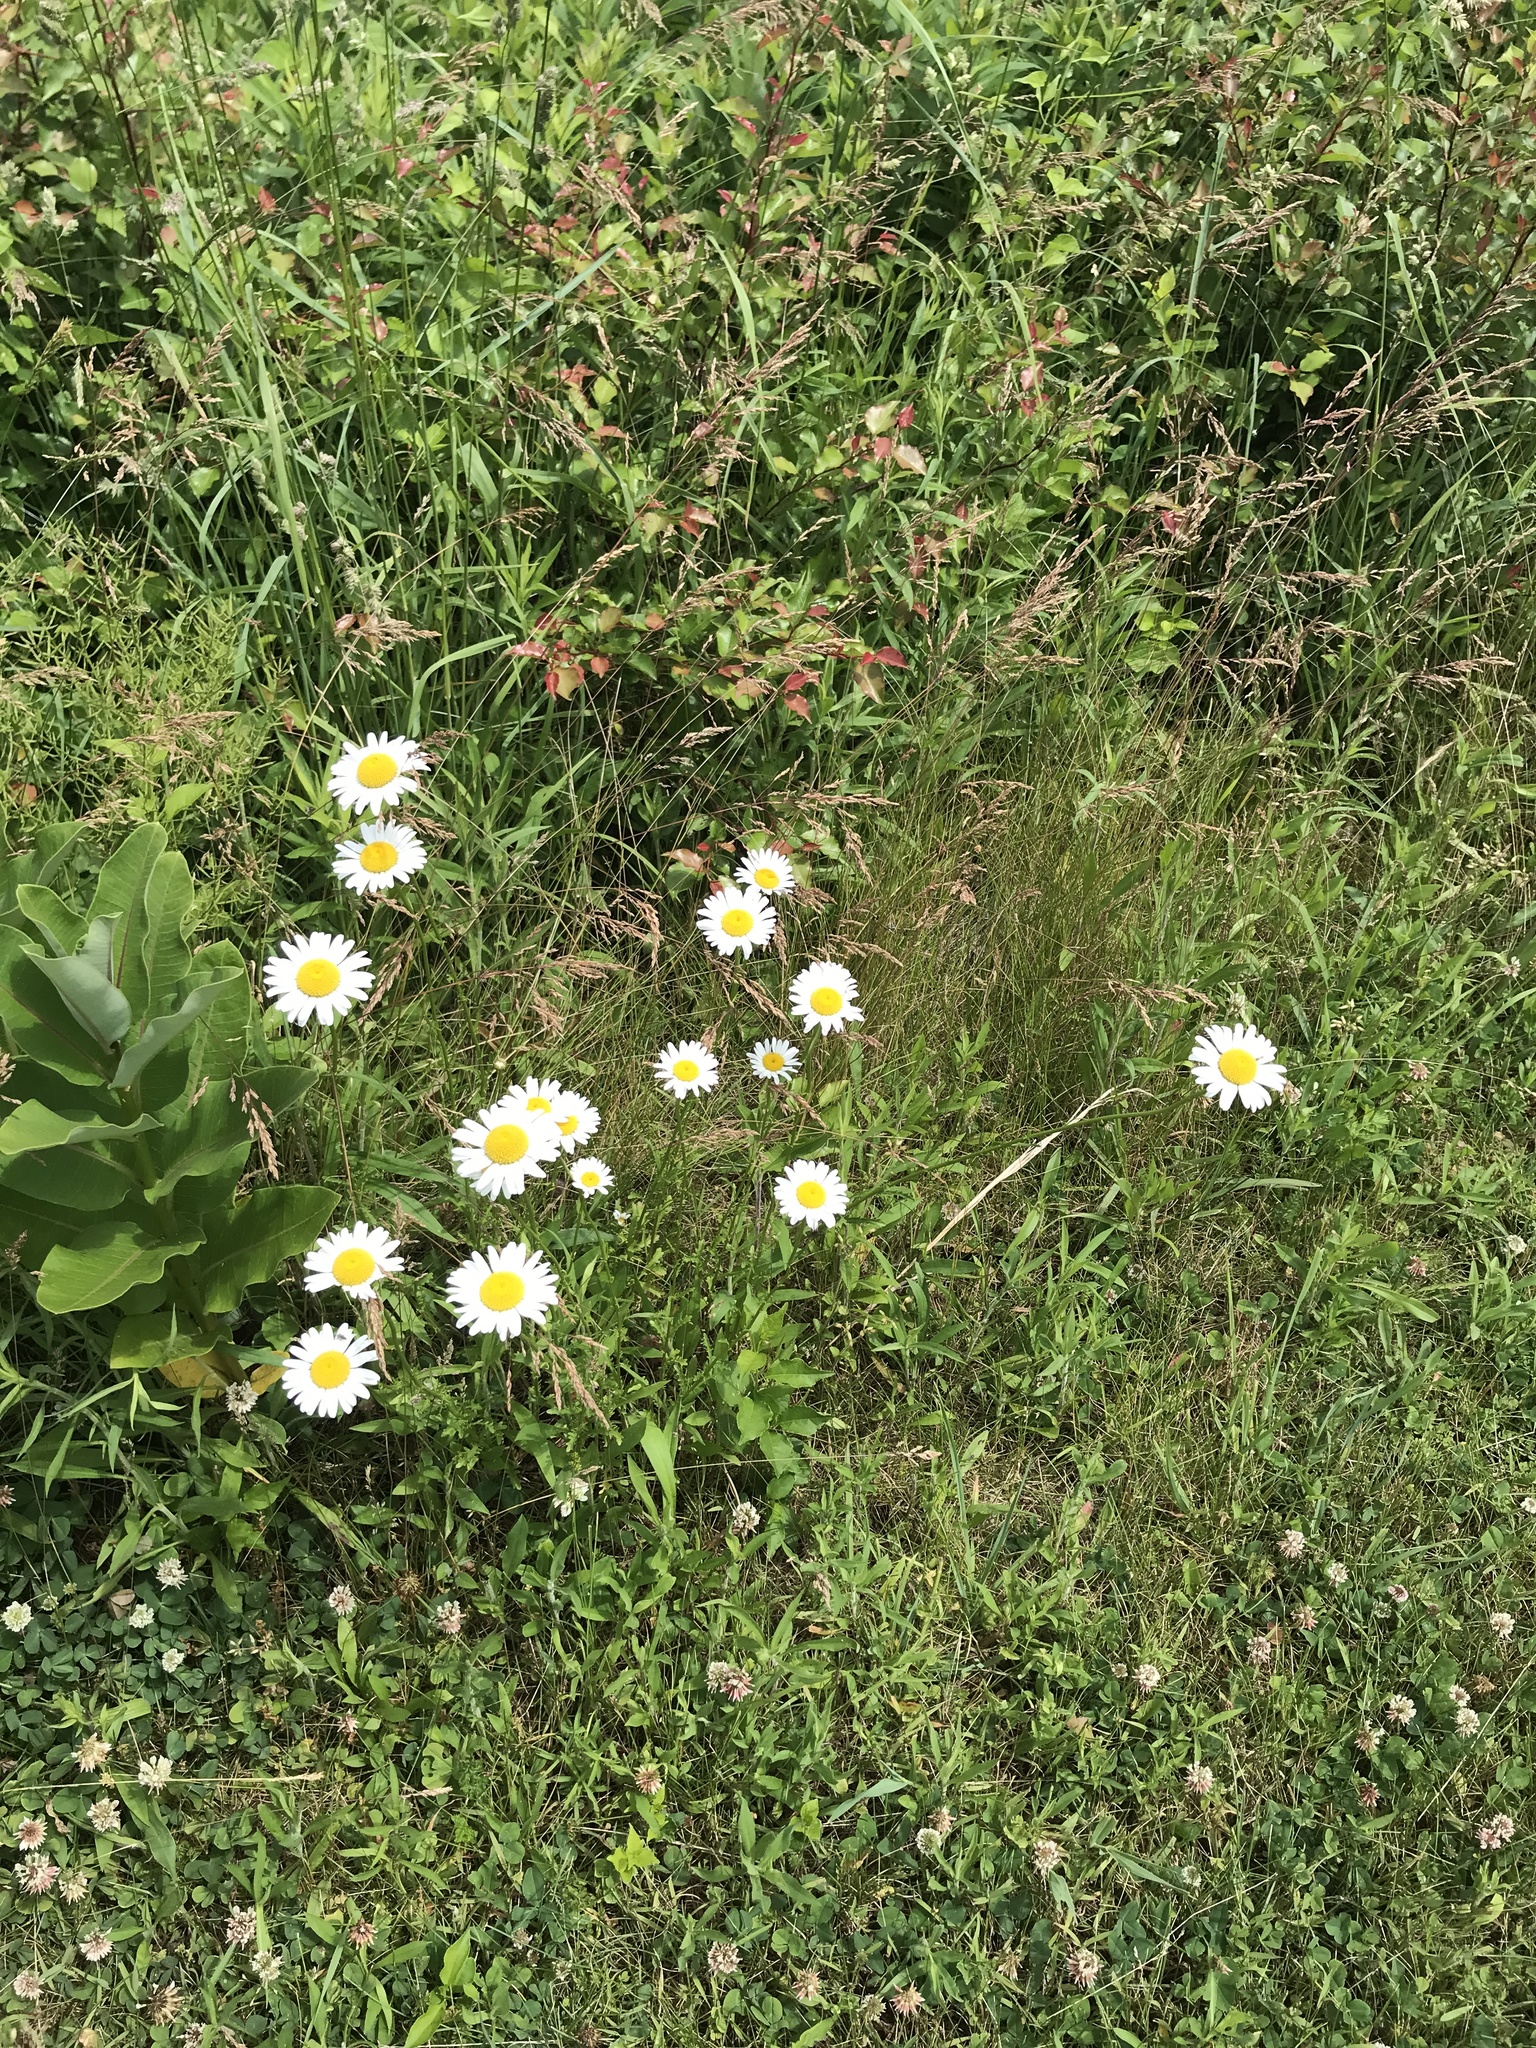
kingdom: Plantae
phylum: Tracheophyta
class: Magnoliopsida
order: Asterales
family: Asteraceae
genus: Leucanthemum
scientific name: Leucanthemum vulgare
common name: Oxeye daisy
